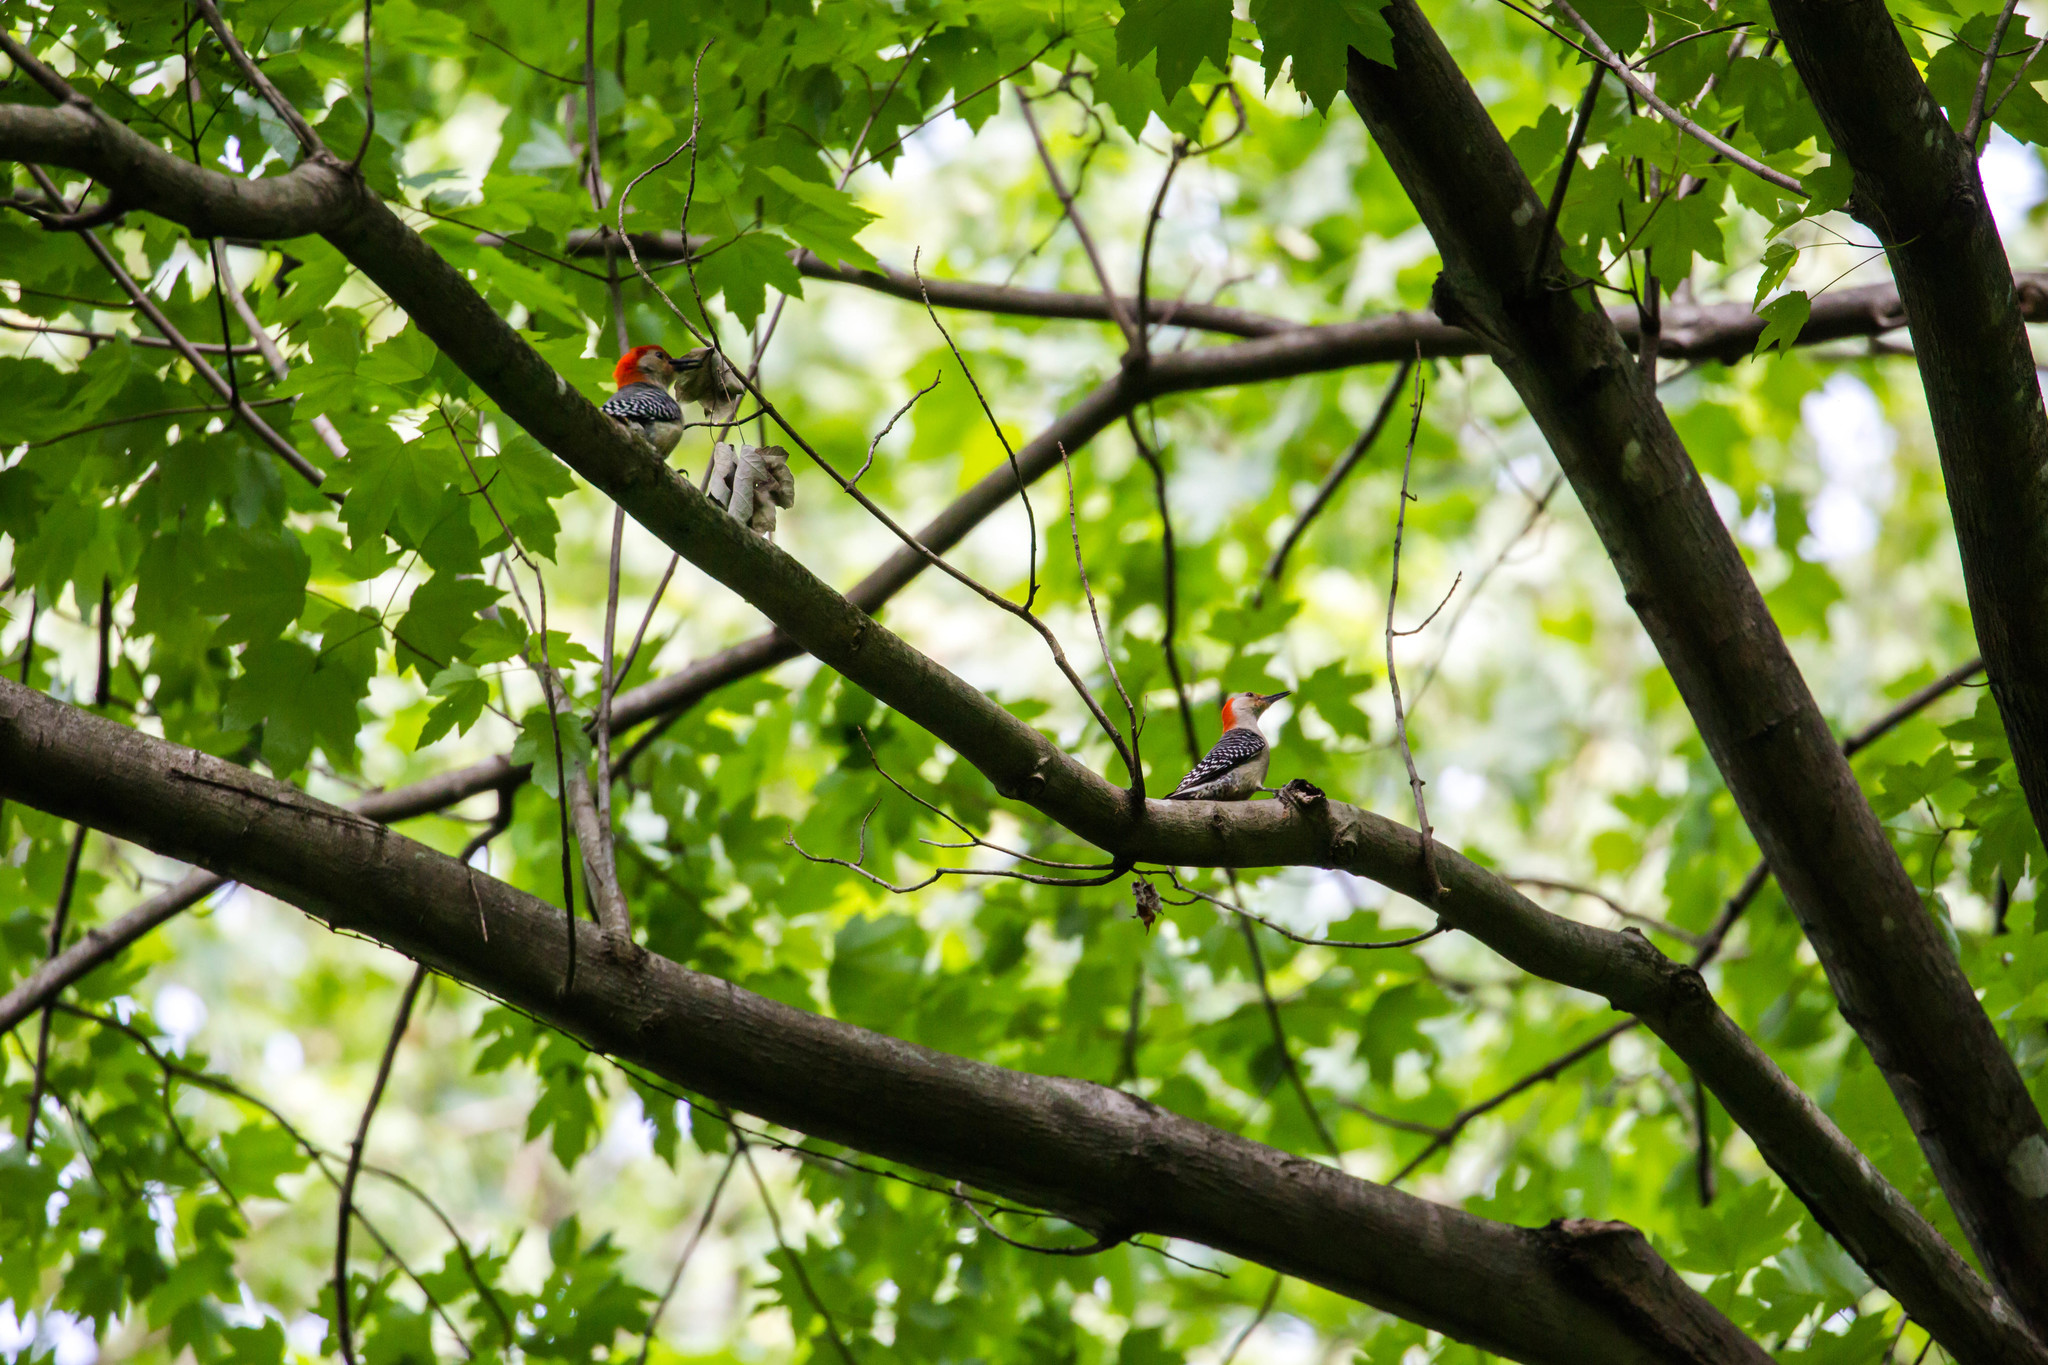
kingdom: Animalia
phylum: Chordata
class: Aves
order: Piciformes
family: Picidae
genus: Melanerpes
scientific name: Melanerpes carolinus
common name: Red-bellied woodpecker
